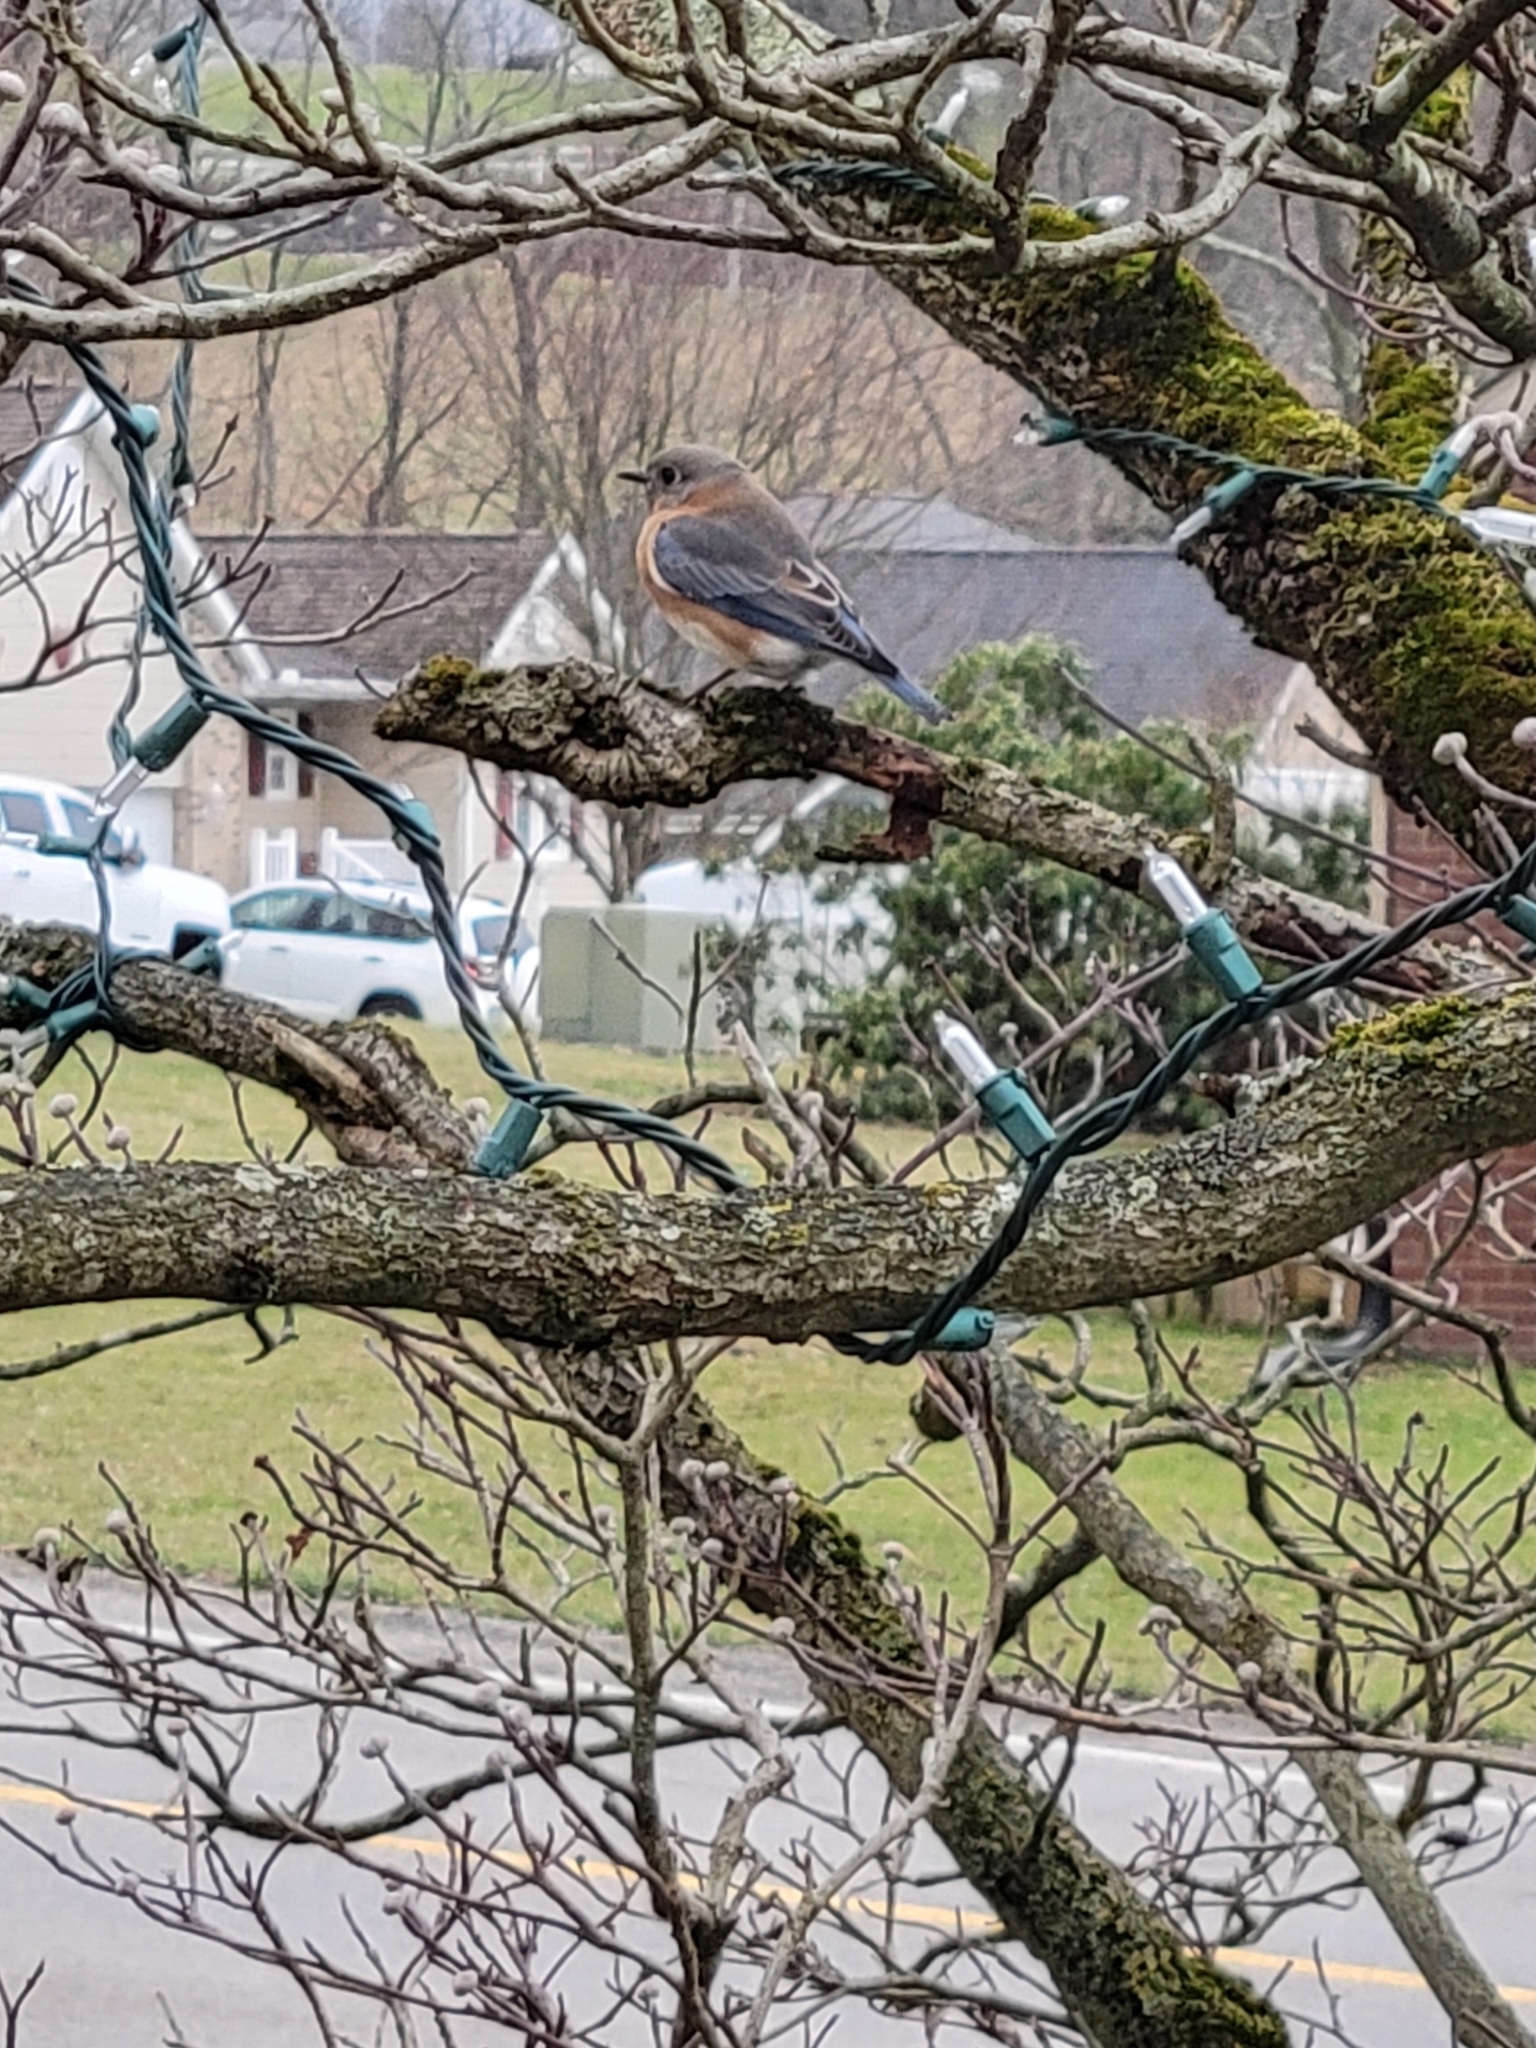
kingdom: Animalia
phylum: Chordata
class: Aves
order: Passeriformes
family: Turdidae
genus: Sialia
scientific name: Sialia sialis
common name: Eastern bluebird
